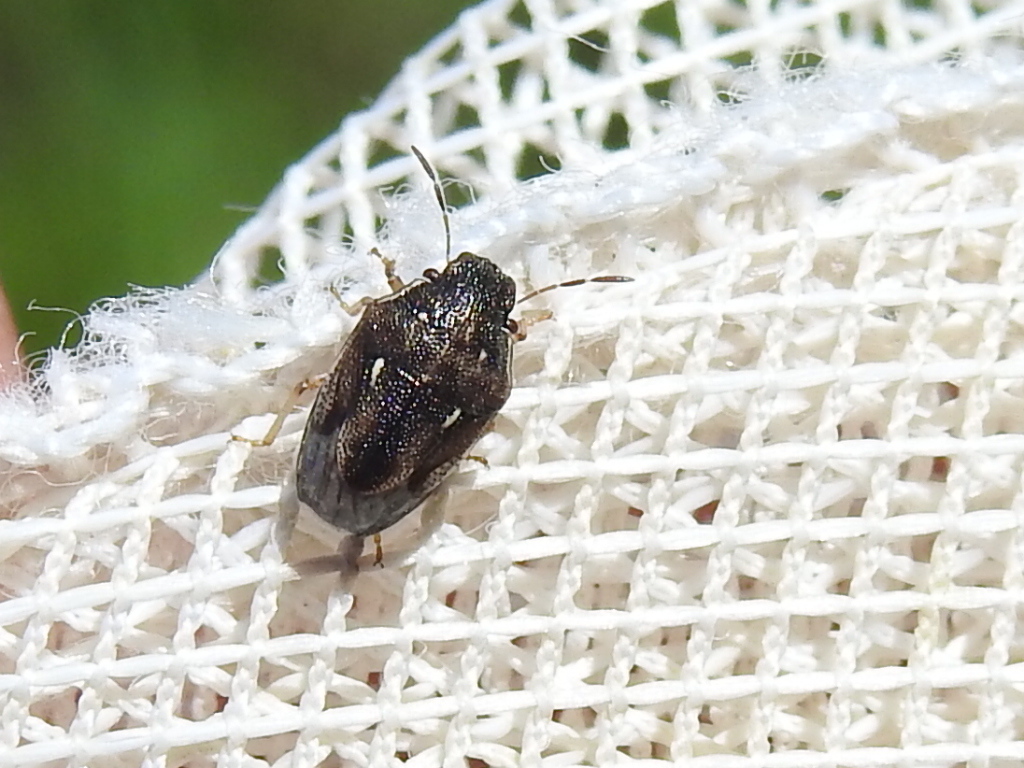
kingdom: Animalia
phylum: Arthropoda
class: Insecta
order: Hemiptera
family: Pentatomidae
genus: Neottiglossa
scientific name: Neottiglossa cavifrons
